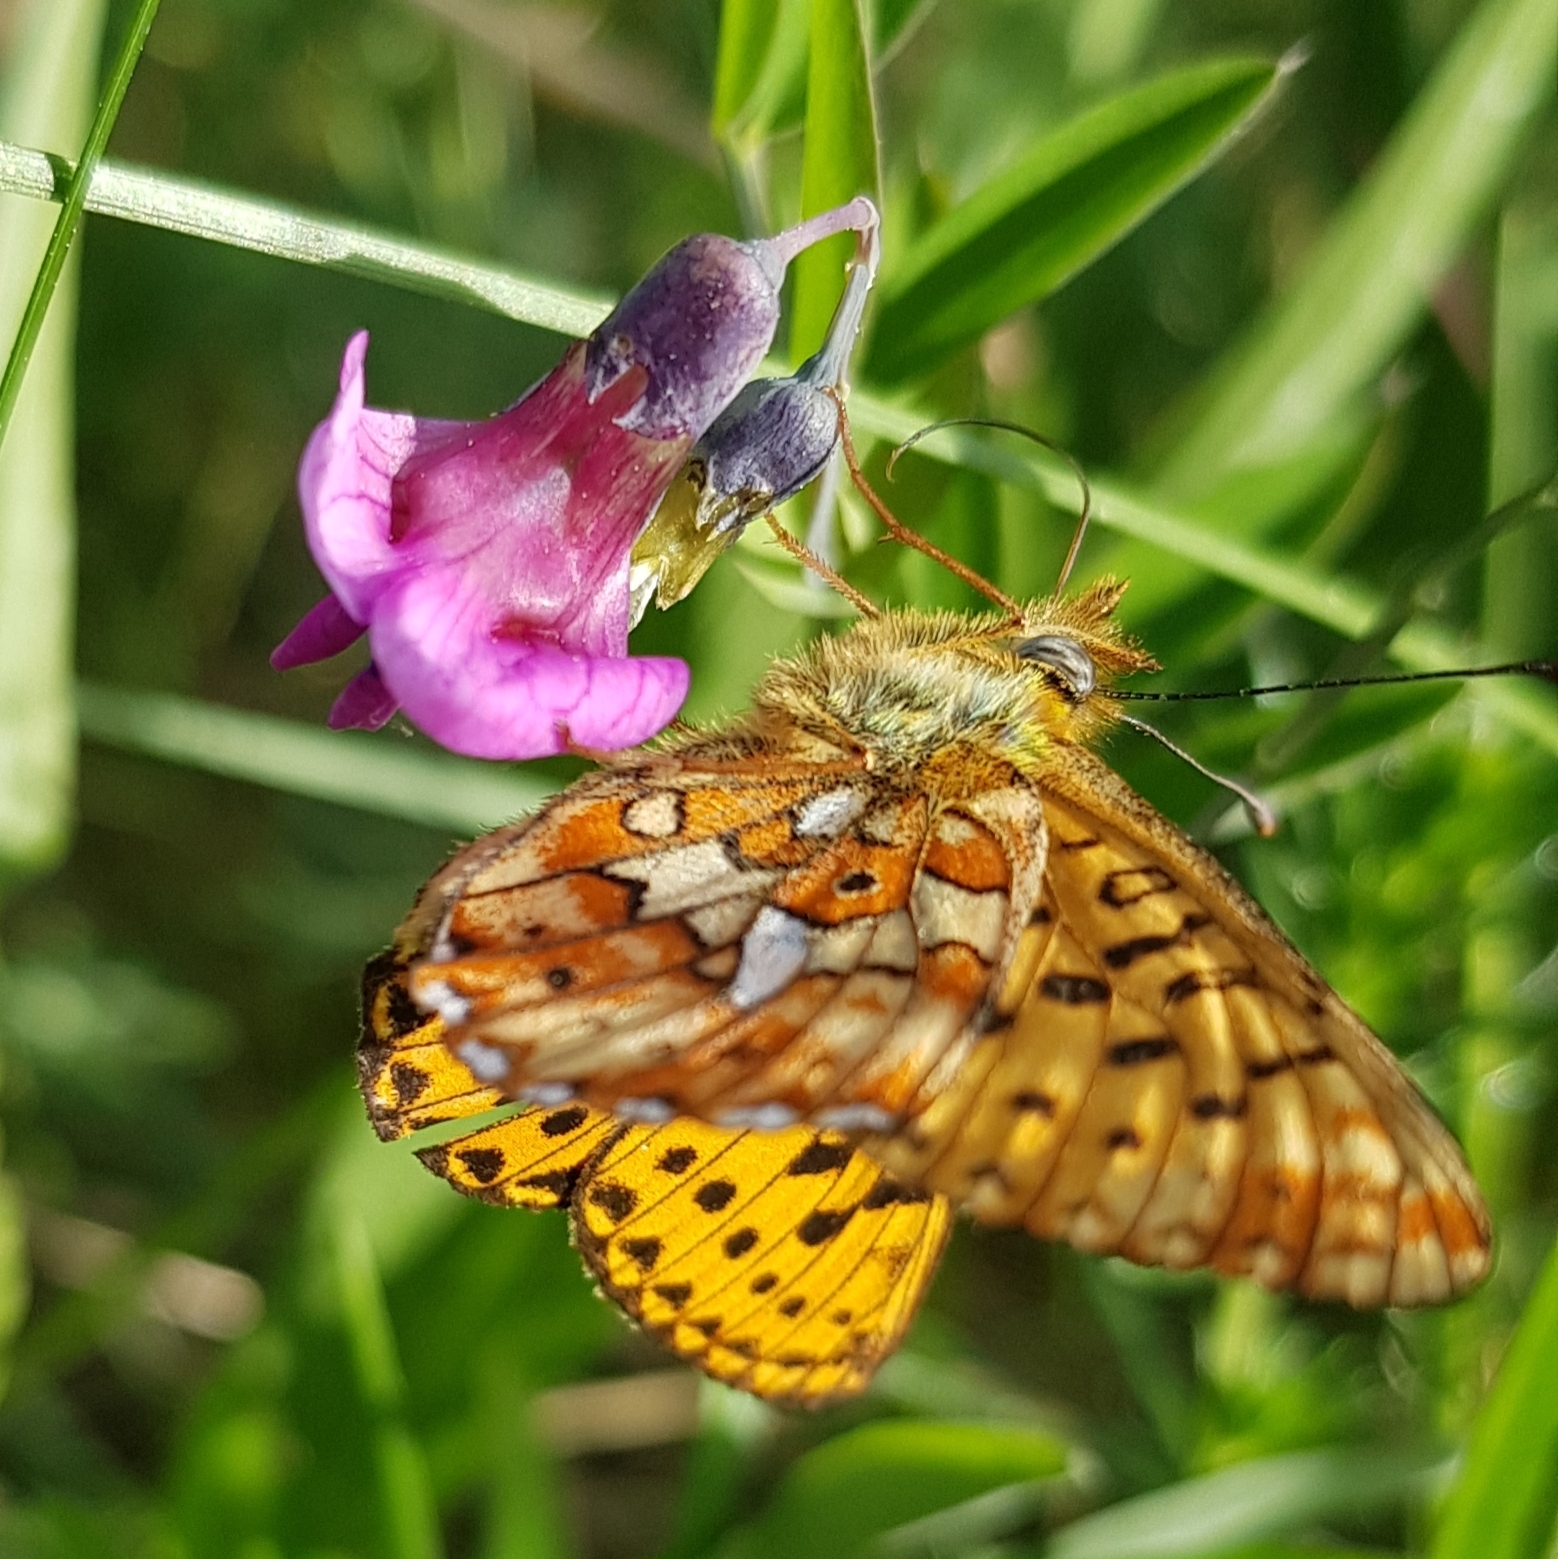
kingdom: Animalia
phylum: Arthropoda
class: Insecta
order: Lepidoptera
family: Nymphalidae
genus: Clossiana
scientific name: Clossiana euphrosyne
